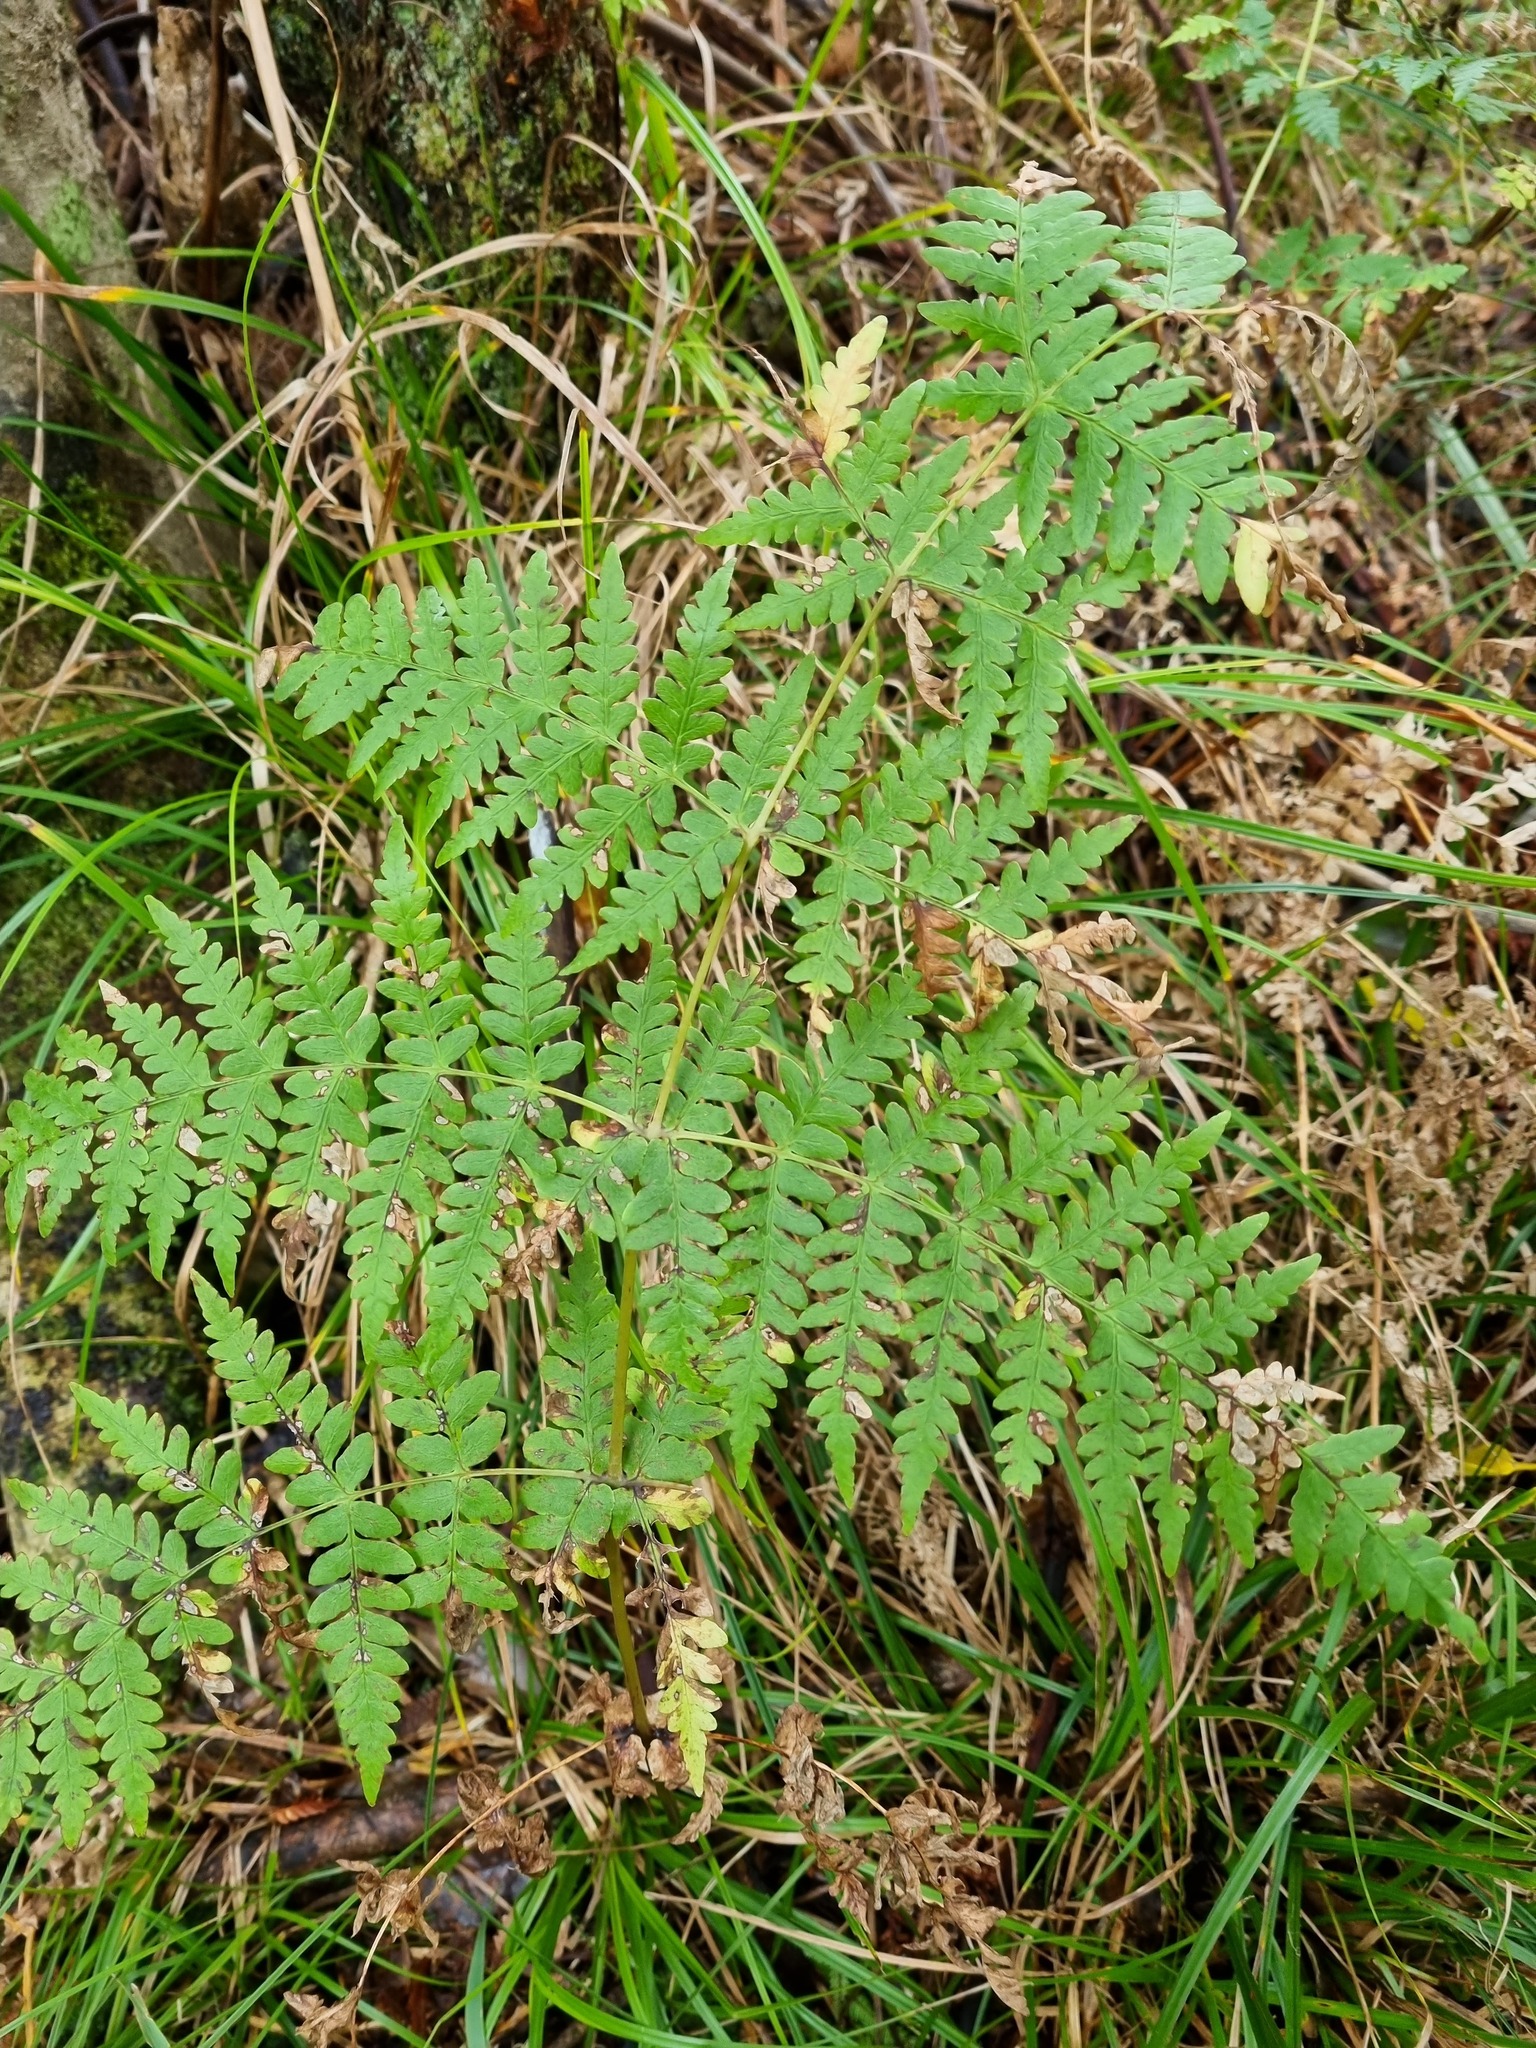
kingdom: Plantae
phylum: Tracheophyta
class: Polypodiopsida
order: Polypodiales
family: Dennstaedtiaceae
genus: Histiopteris
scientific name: Histiopteris incisa
